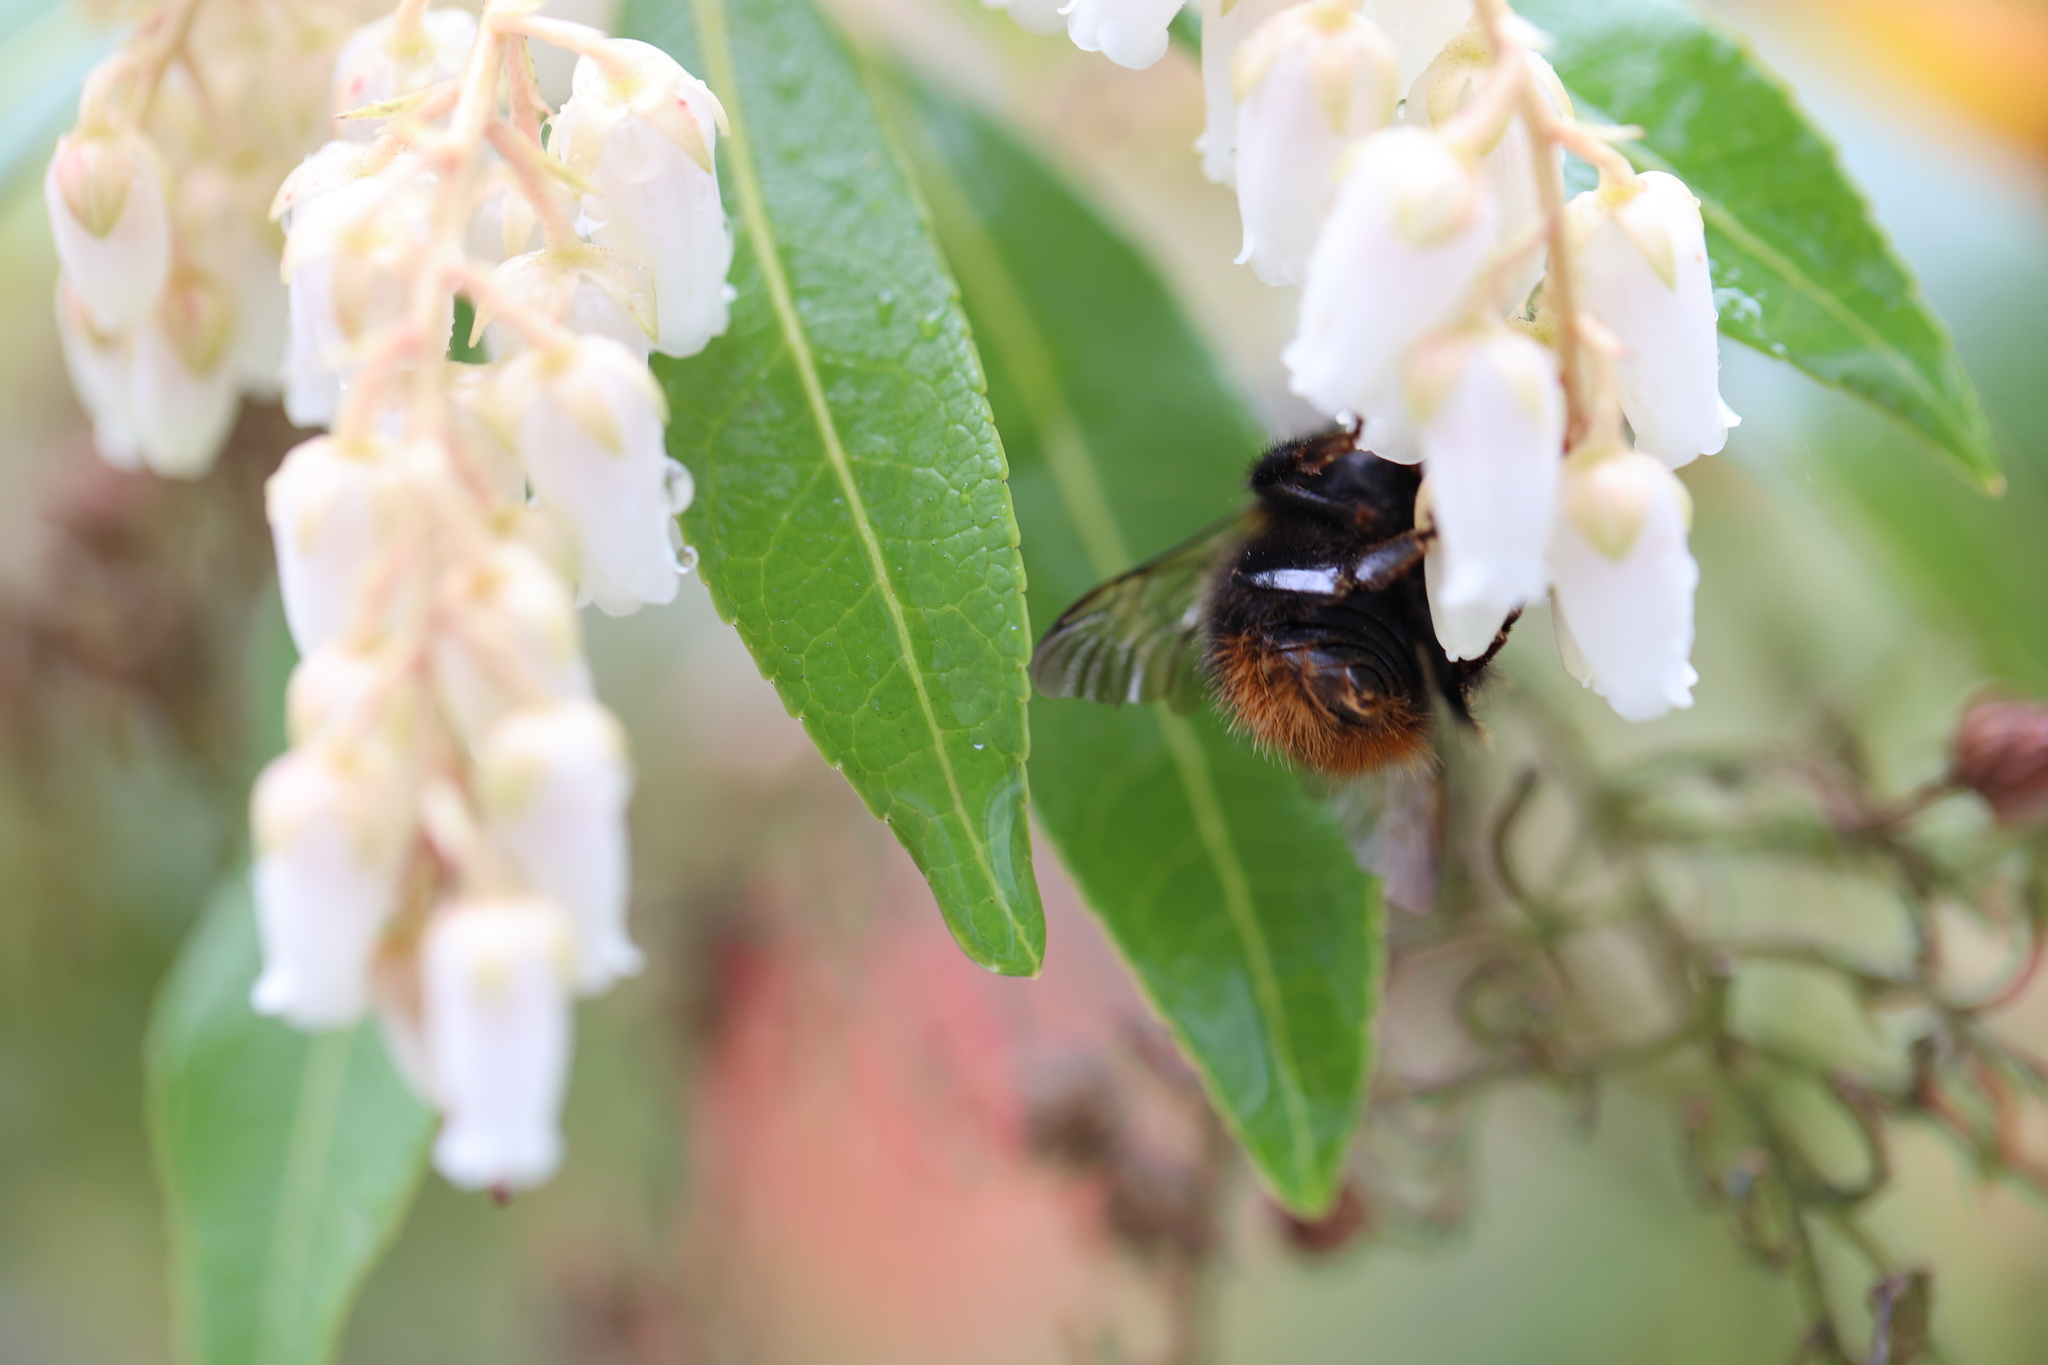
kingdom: Animalia
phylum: Arthropoda
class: Insecta
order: Hymenoptera
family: Apidae
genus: Bombus
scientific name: Bombus pratorum
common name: Early humble-bee
